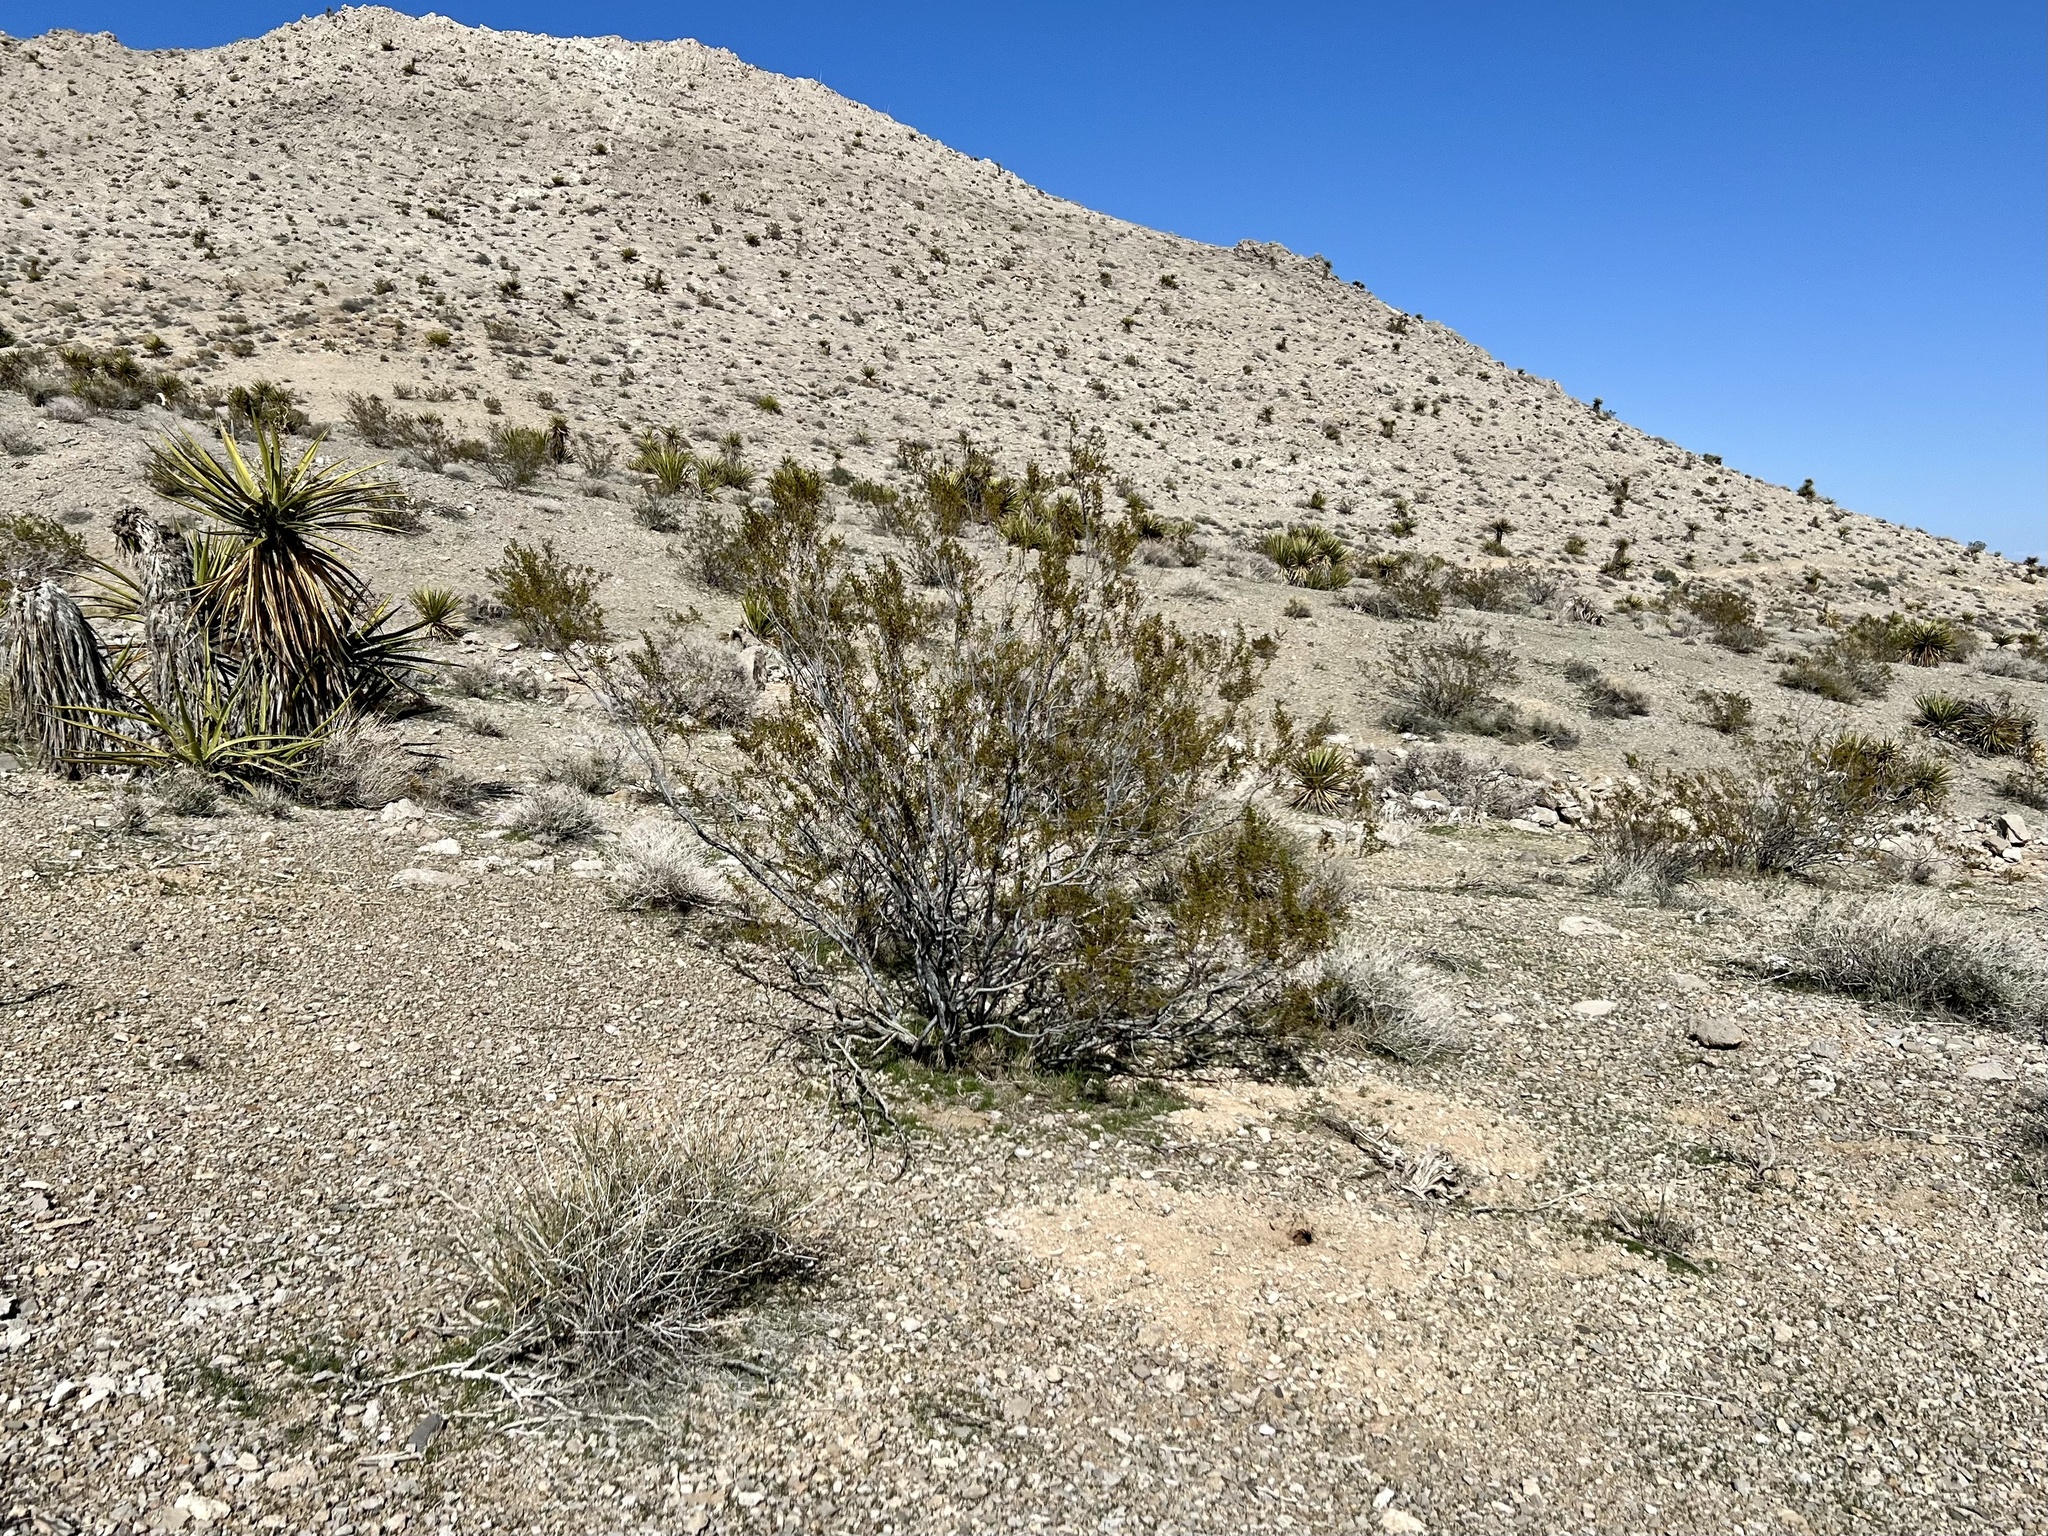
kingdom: Plantae
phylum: Tracheophyta
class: Magnoliopsida
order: Zygophyllales
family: Zygophyllaceae
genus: Larrea
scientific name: Larrea tridentata
